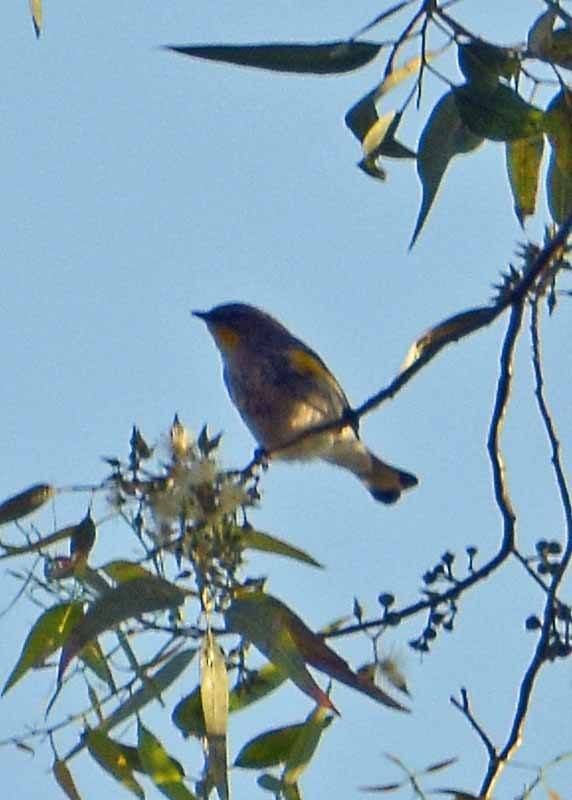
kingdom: Animalia
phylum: Chordata
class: Aves
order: Passeriformes
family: Parulidae
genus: Setophaga
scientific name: Setophaga coronata
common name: Myrtle warbler
